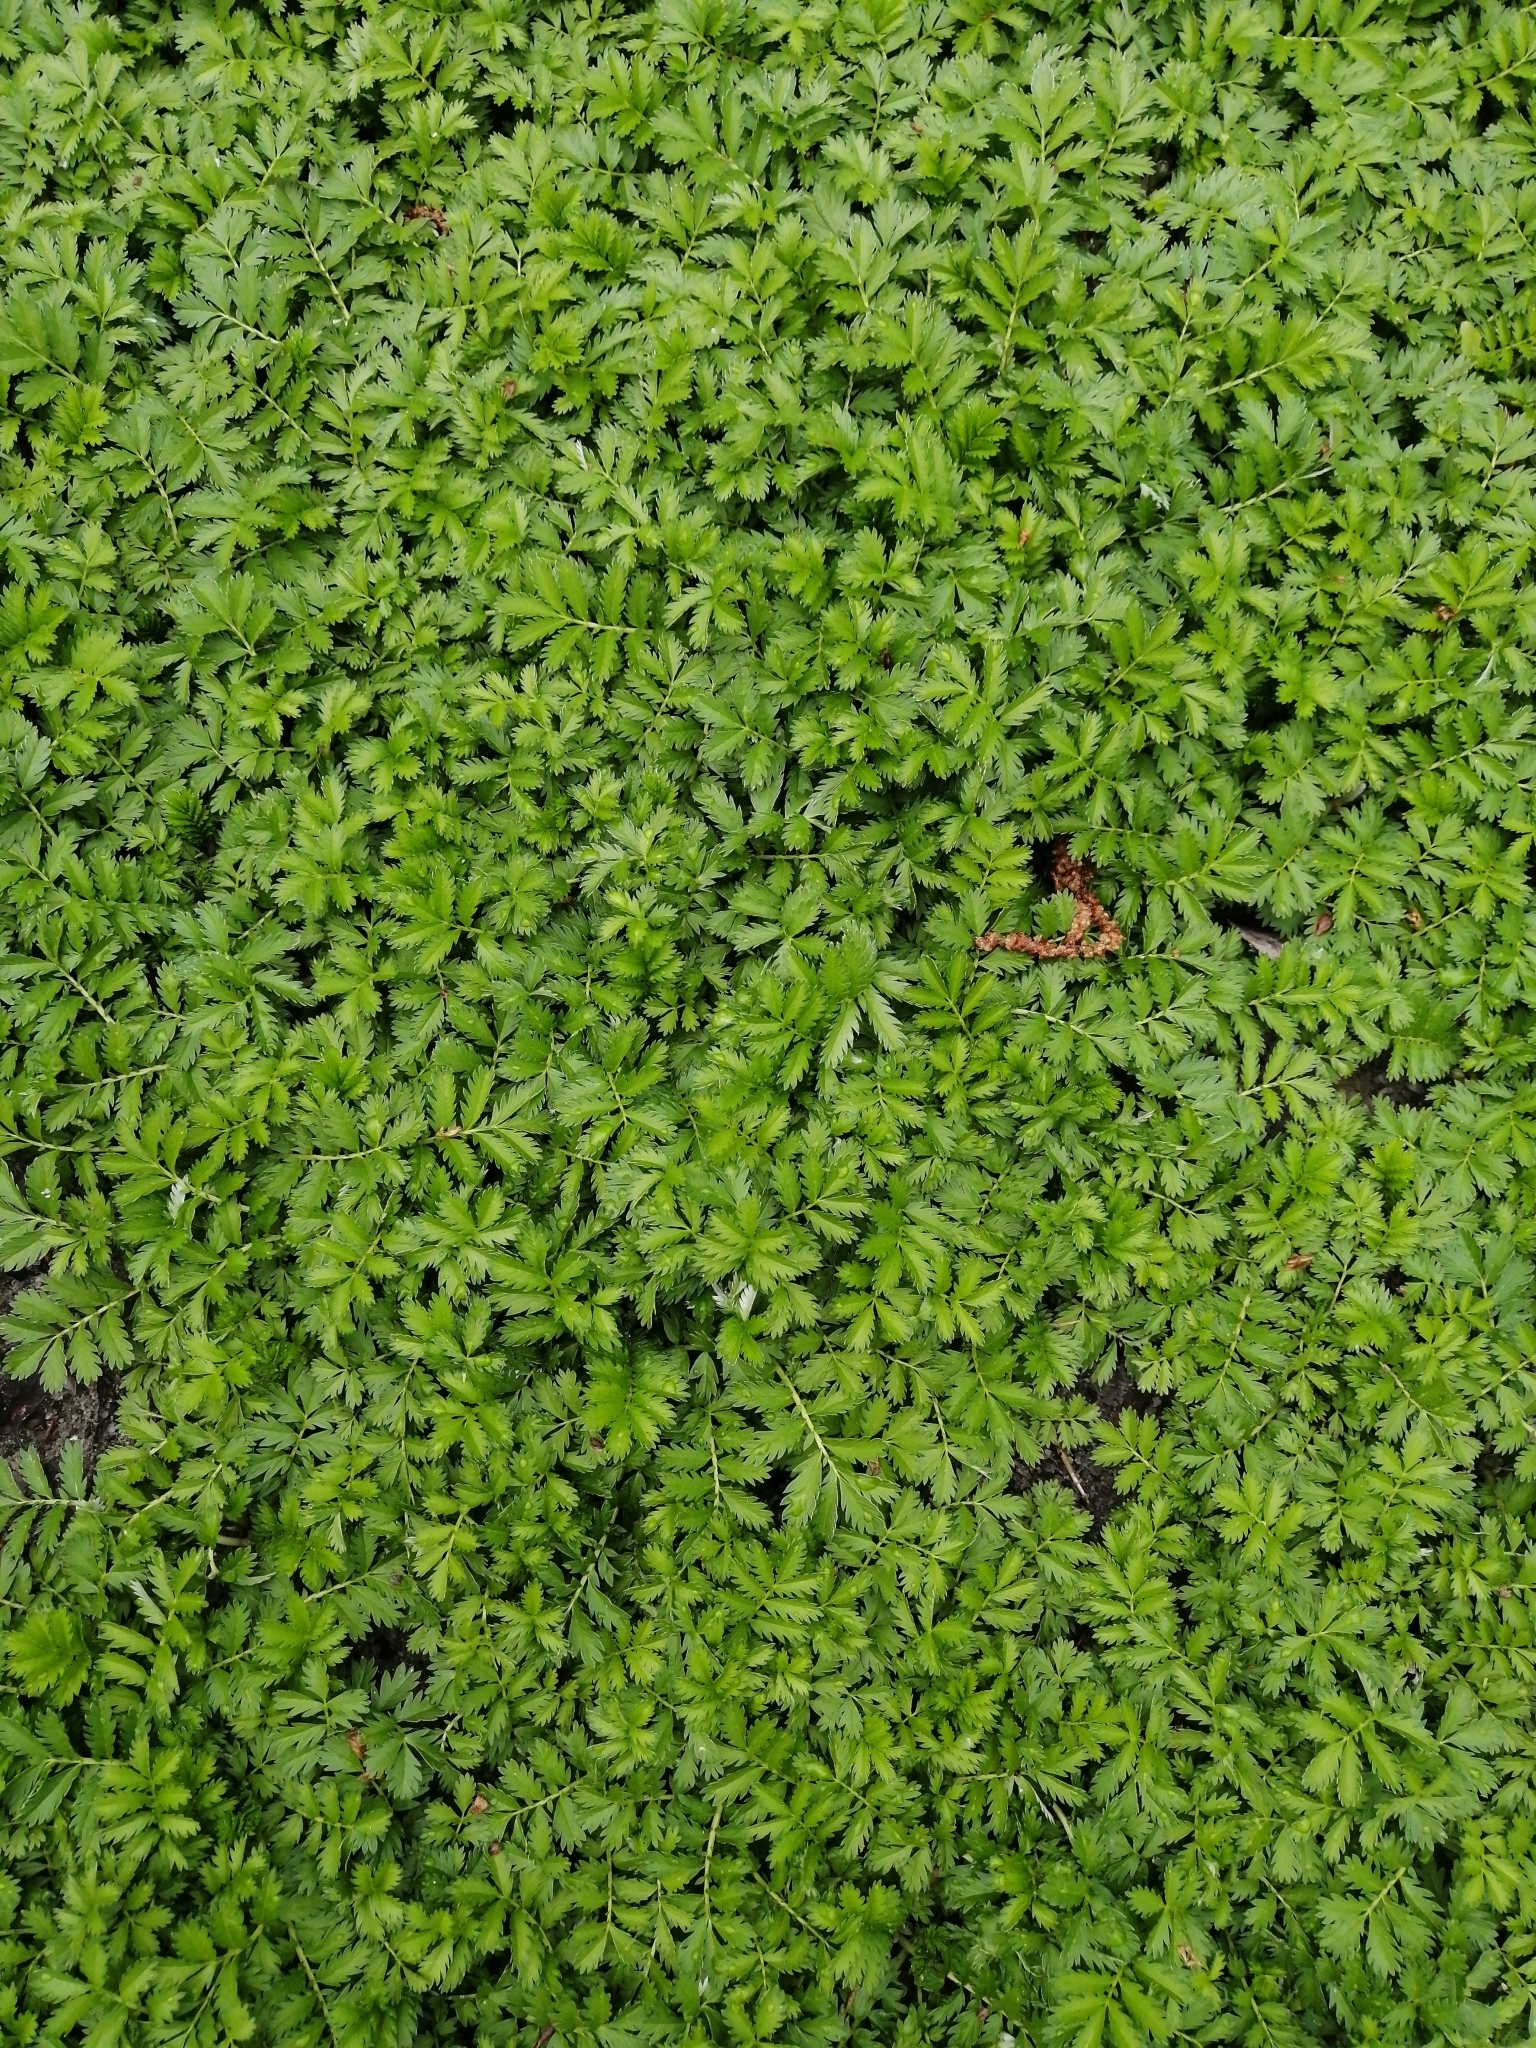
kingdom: Plantae
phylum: Tracheophyta
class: Magnoliopsida
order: Rosales
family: Rosaceae
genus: Argentina
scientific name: Argentina anserina
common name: Common silverweed
